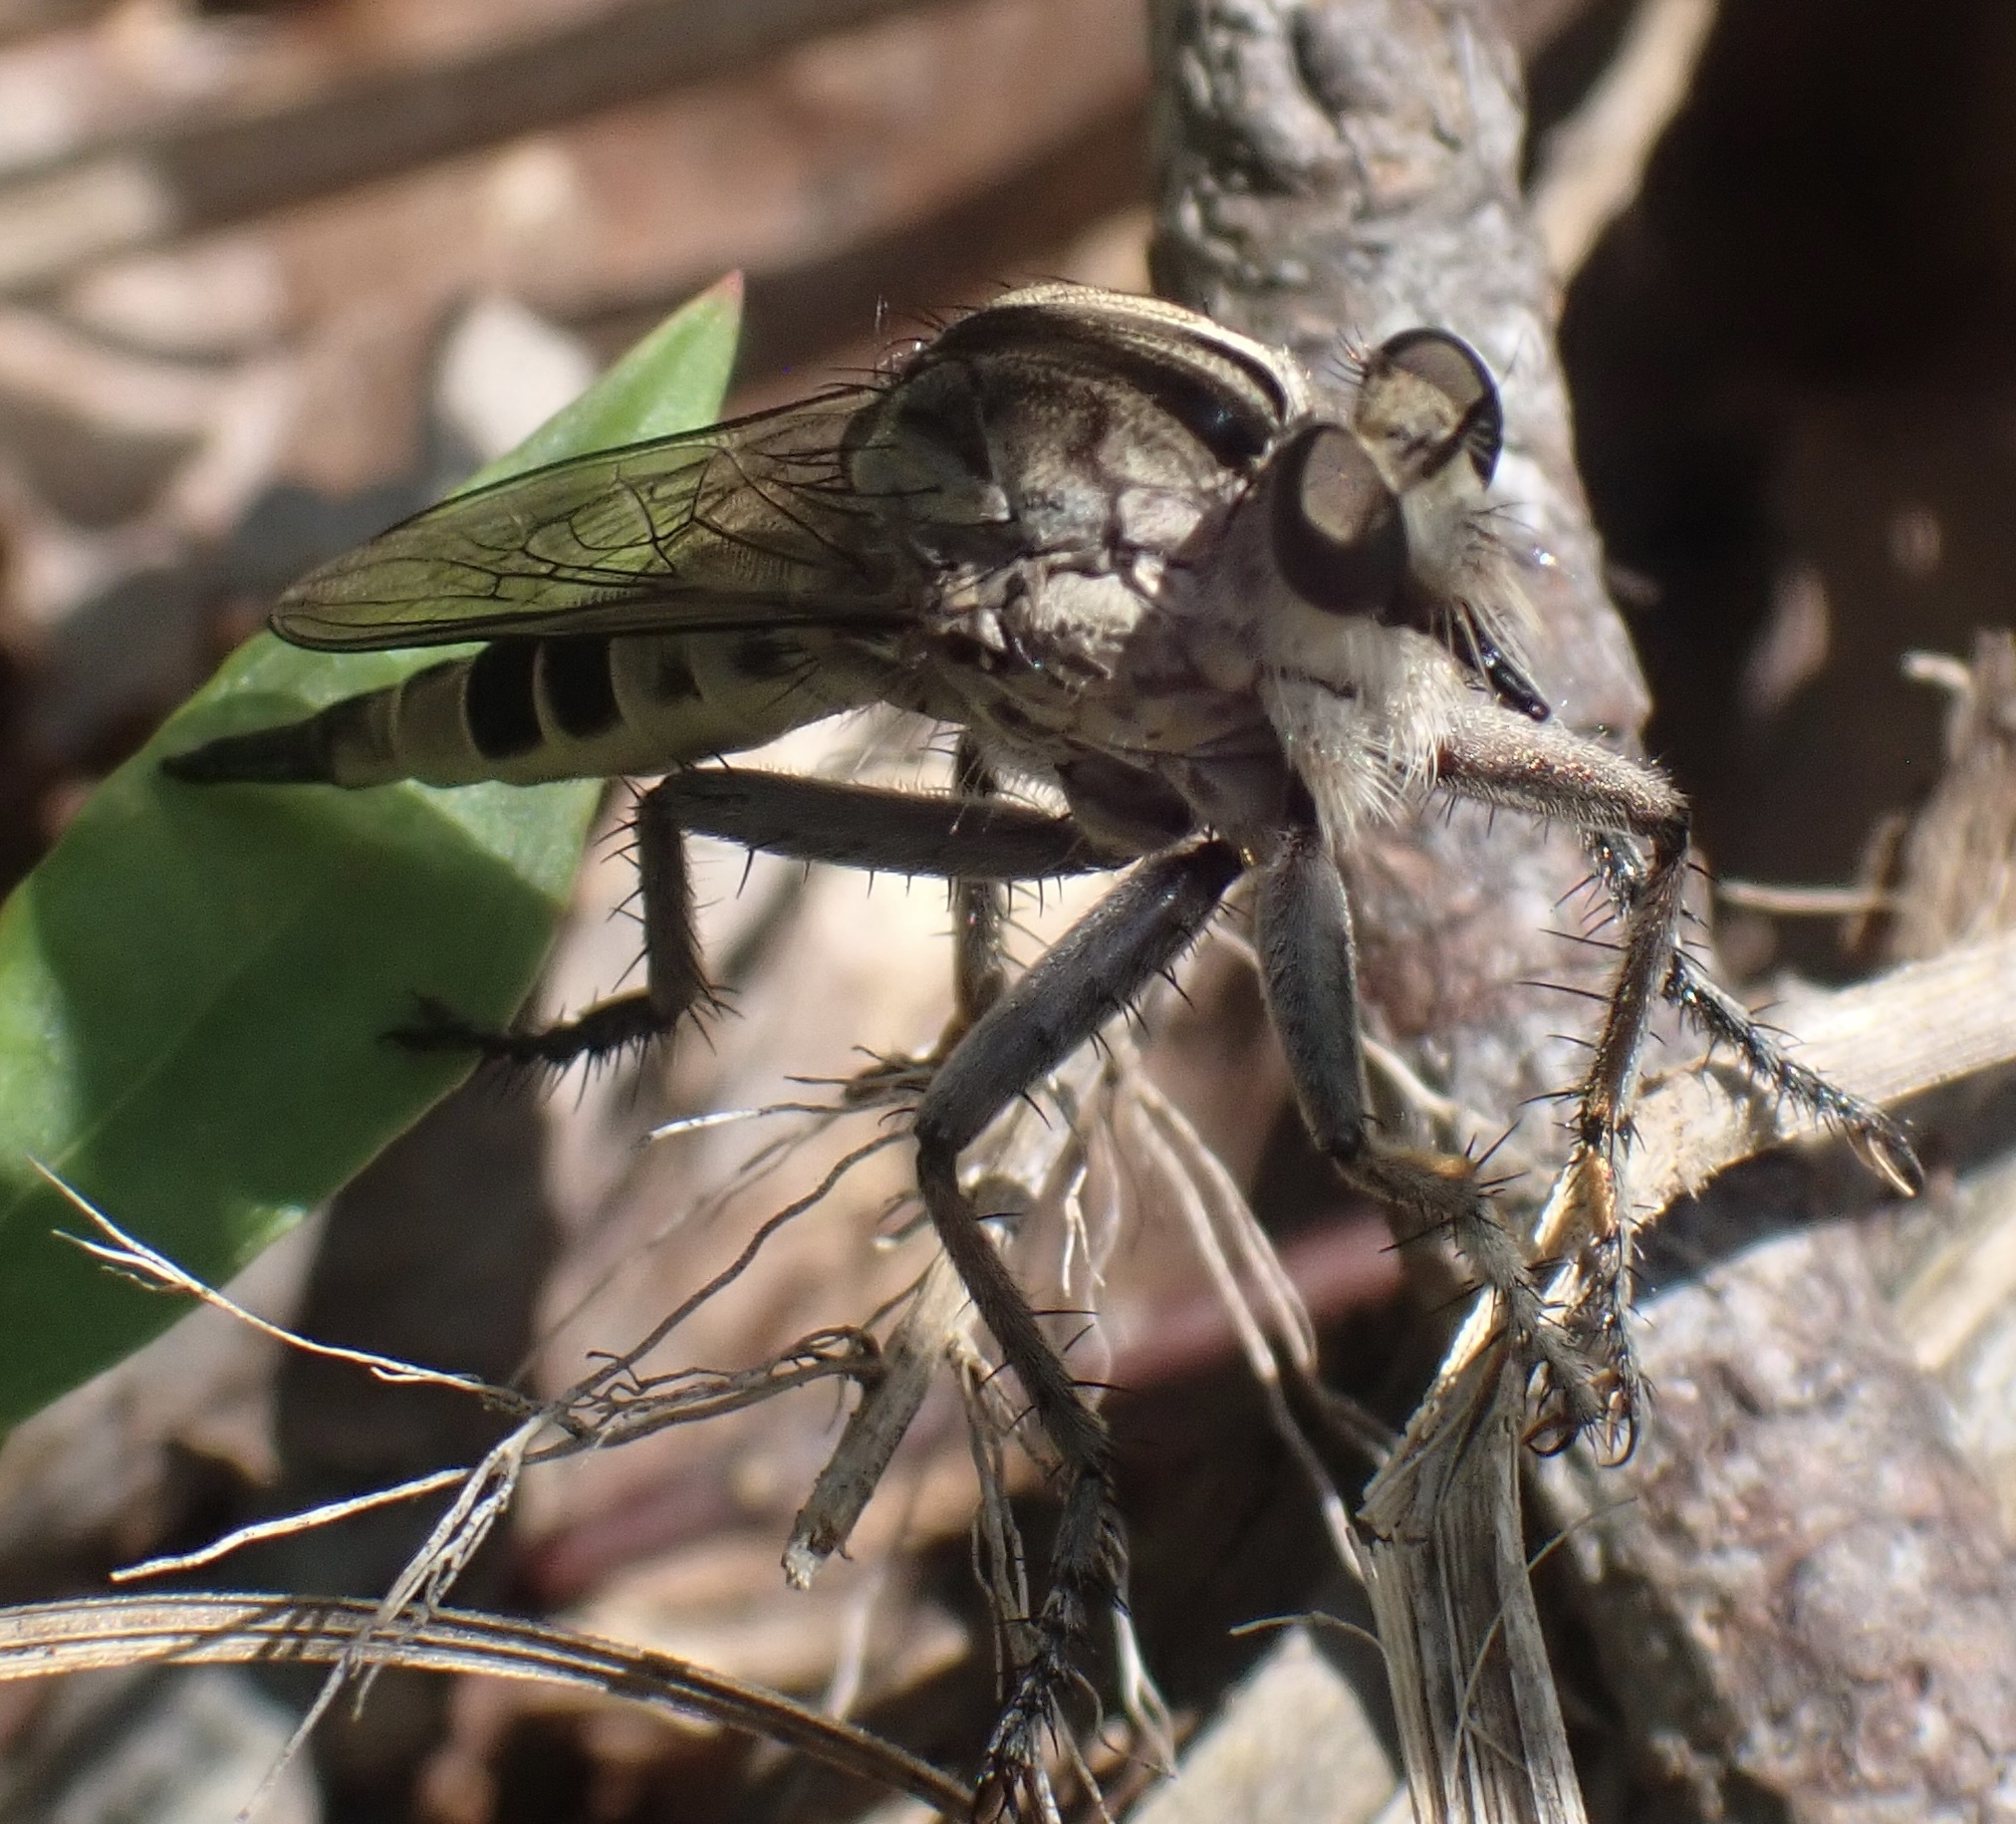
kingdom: Animalia
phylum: Arthropoda
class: Insecta
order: Diptera
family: Asilidae
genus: Triorla
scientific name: Triorla interrupta
